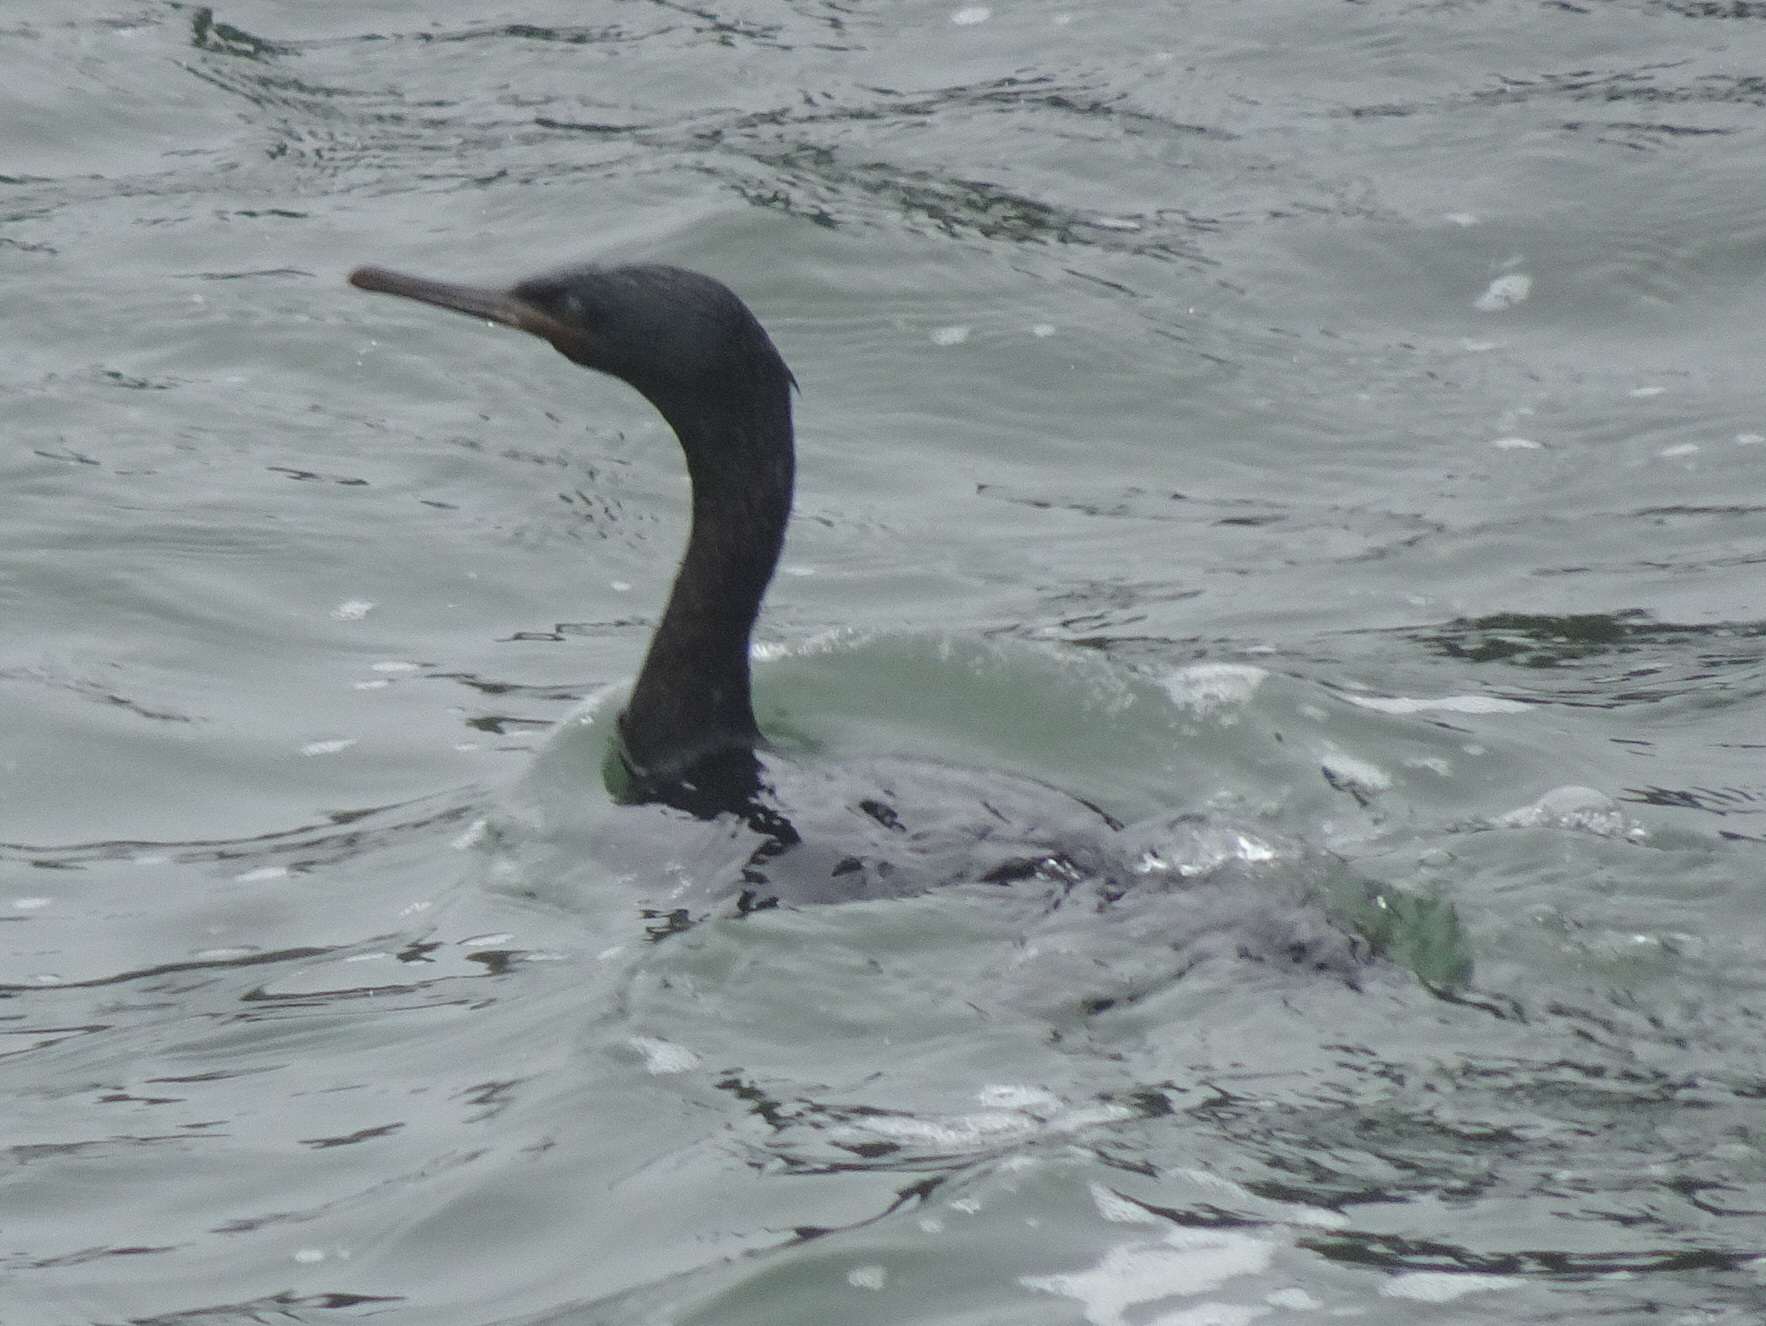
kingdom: Animalia
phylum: Chordata
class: Aves
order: Suliformes
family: Phalacrocoracidae
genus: Phalacrocorax
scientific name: Phalacrocorax pelagicus
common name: Pelagic cormorant
